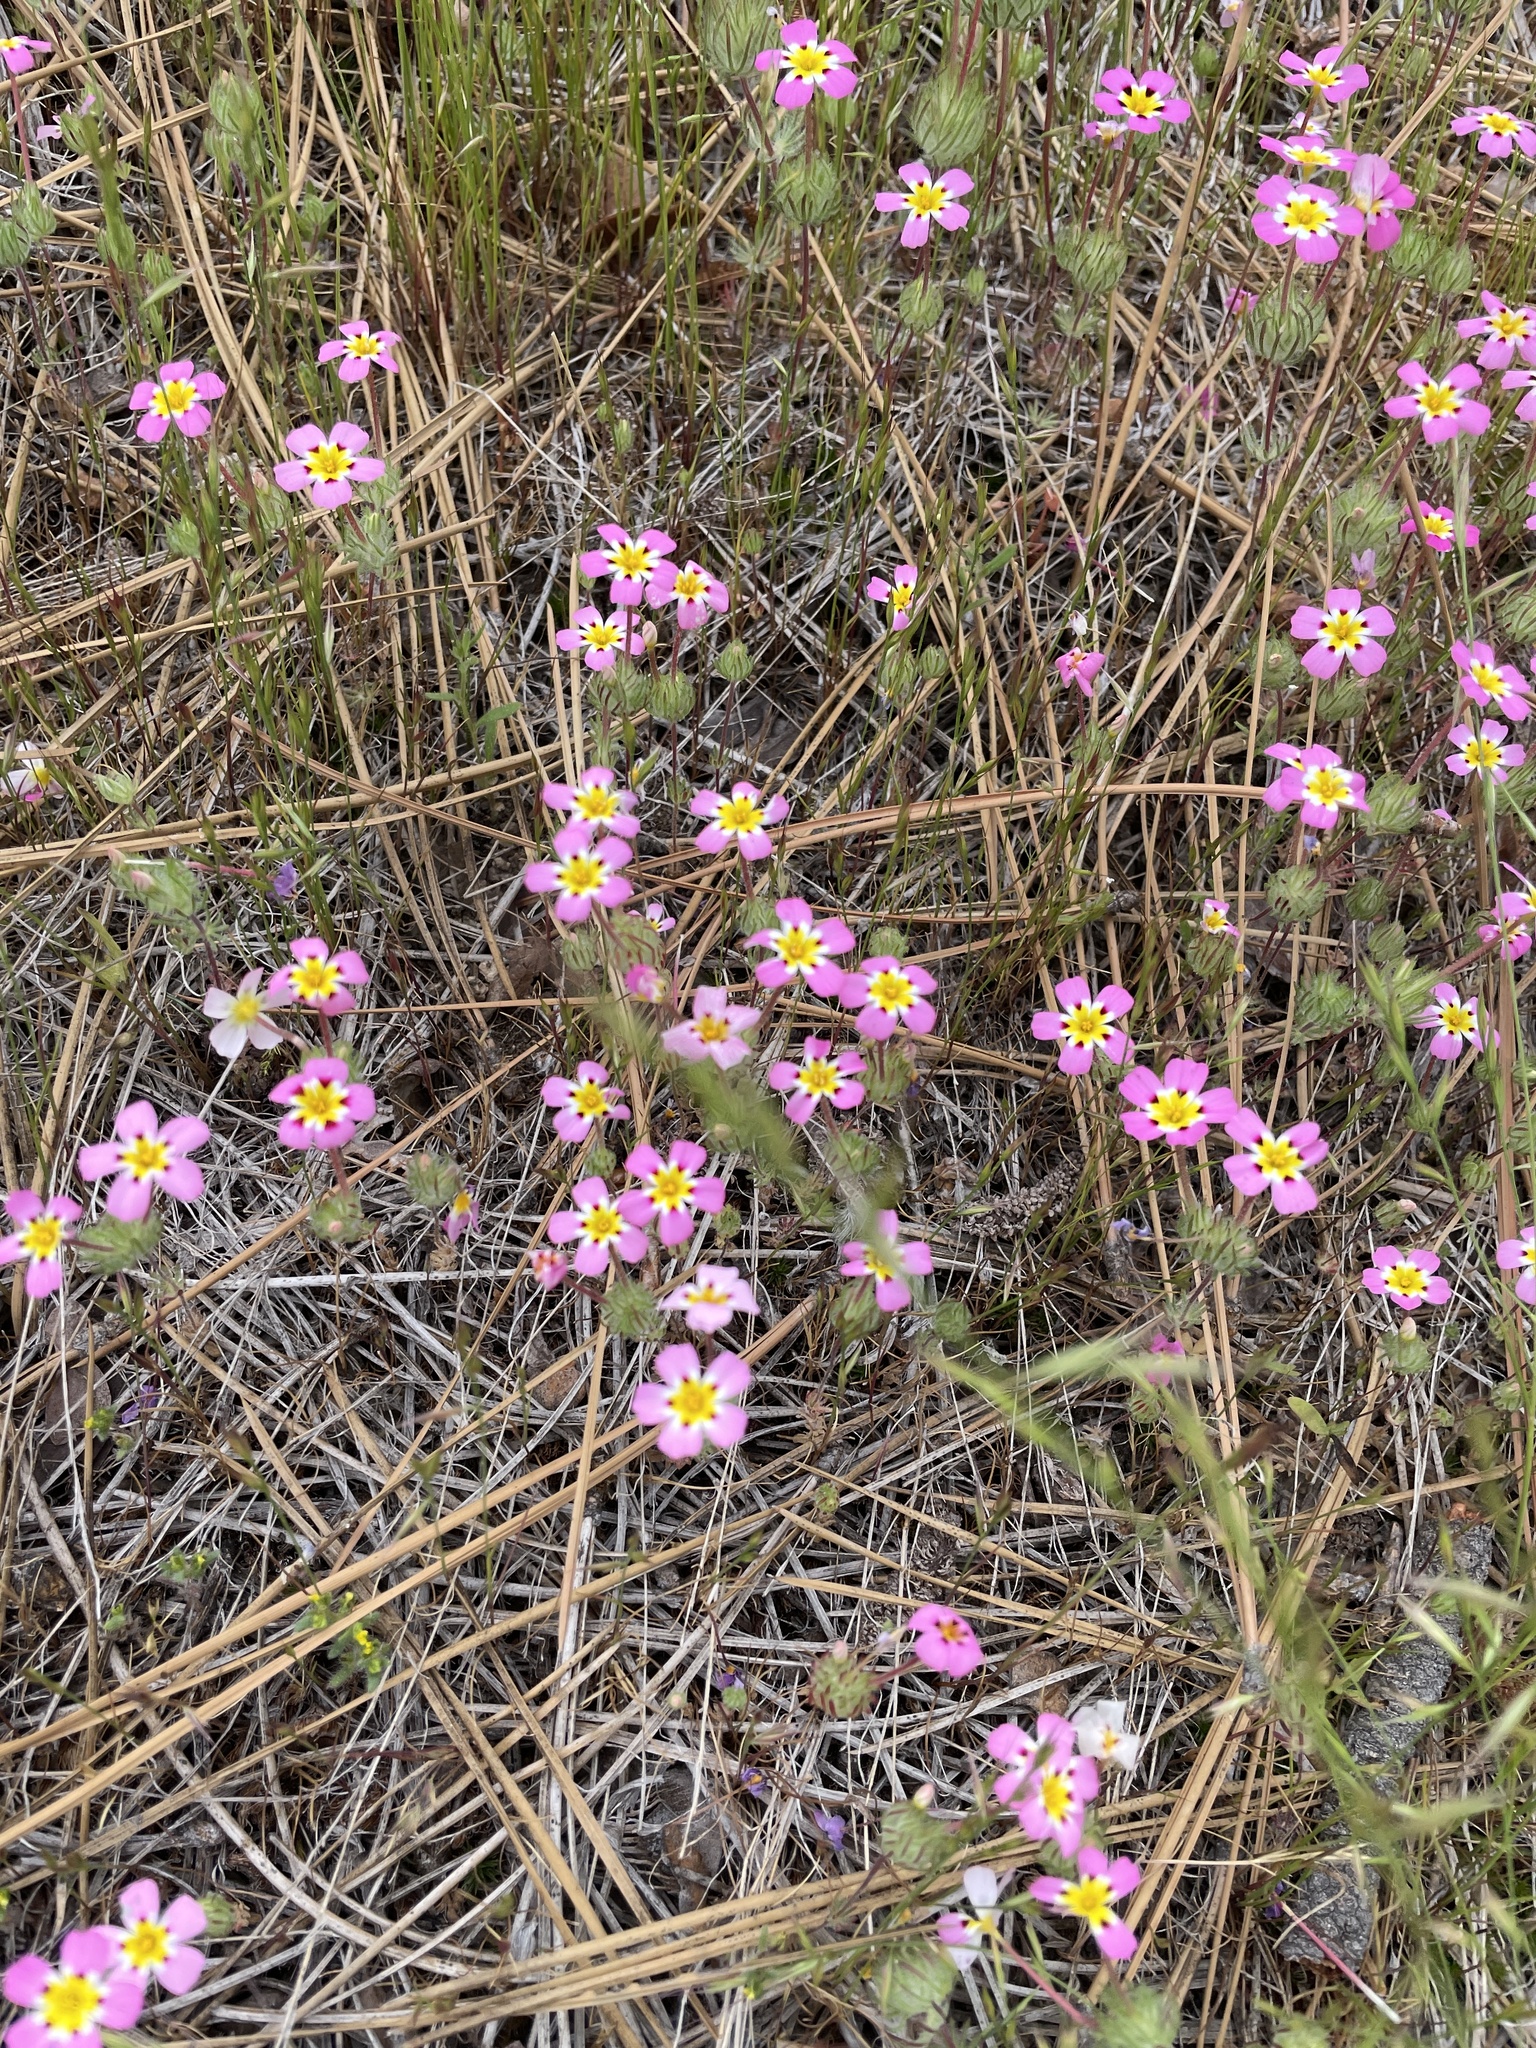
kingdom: Plantae
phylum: Tracheophyta
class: Magnoliopsida
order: Ericales
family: Polemoniaceae
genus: Leptosiphon
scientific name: Leptosiphon ciliatus
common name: Whiskerbrush
